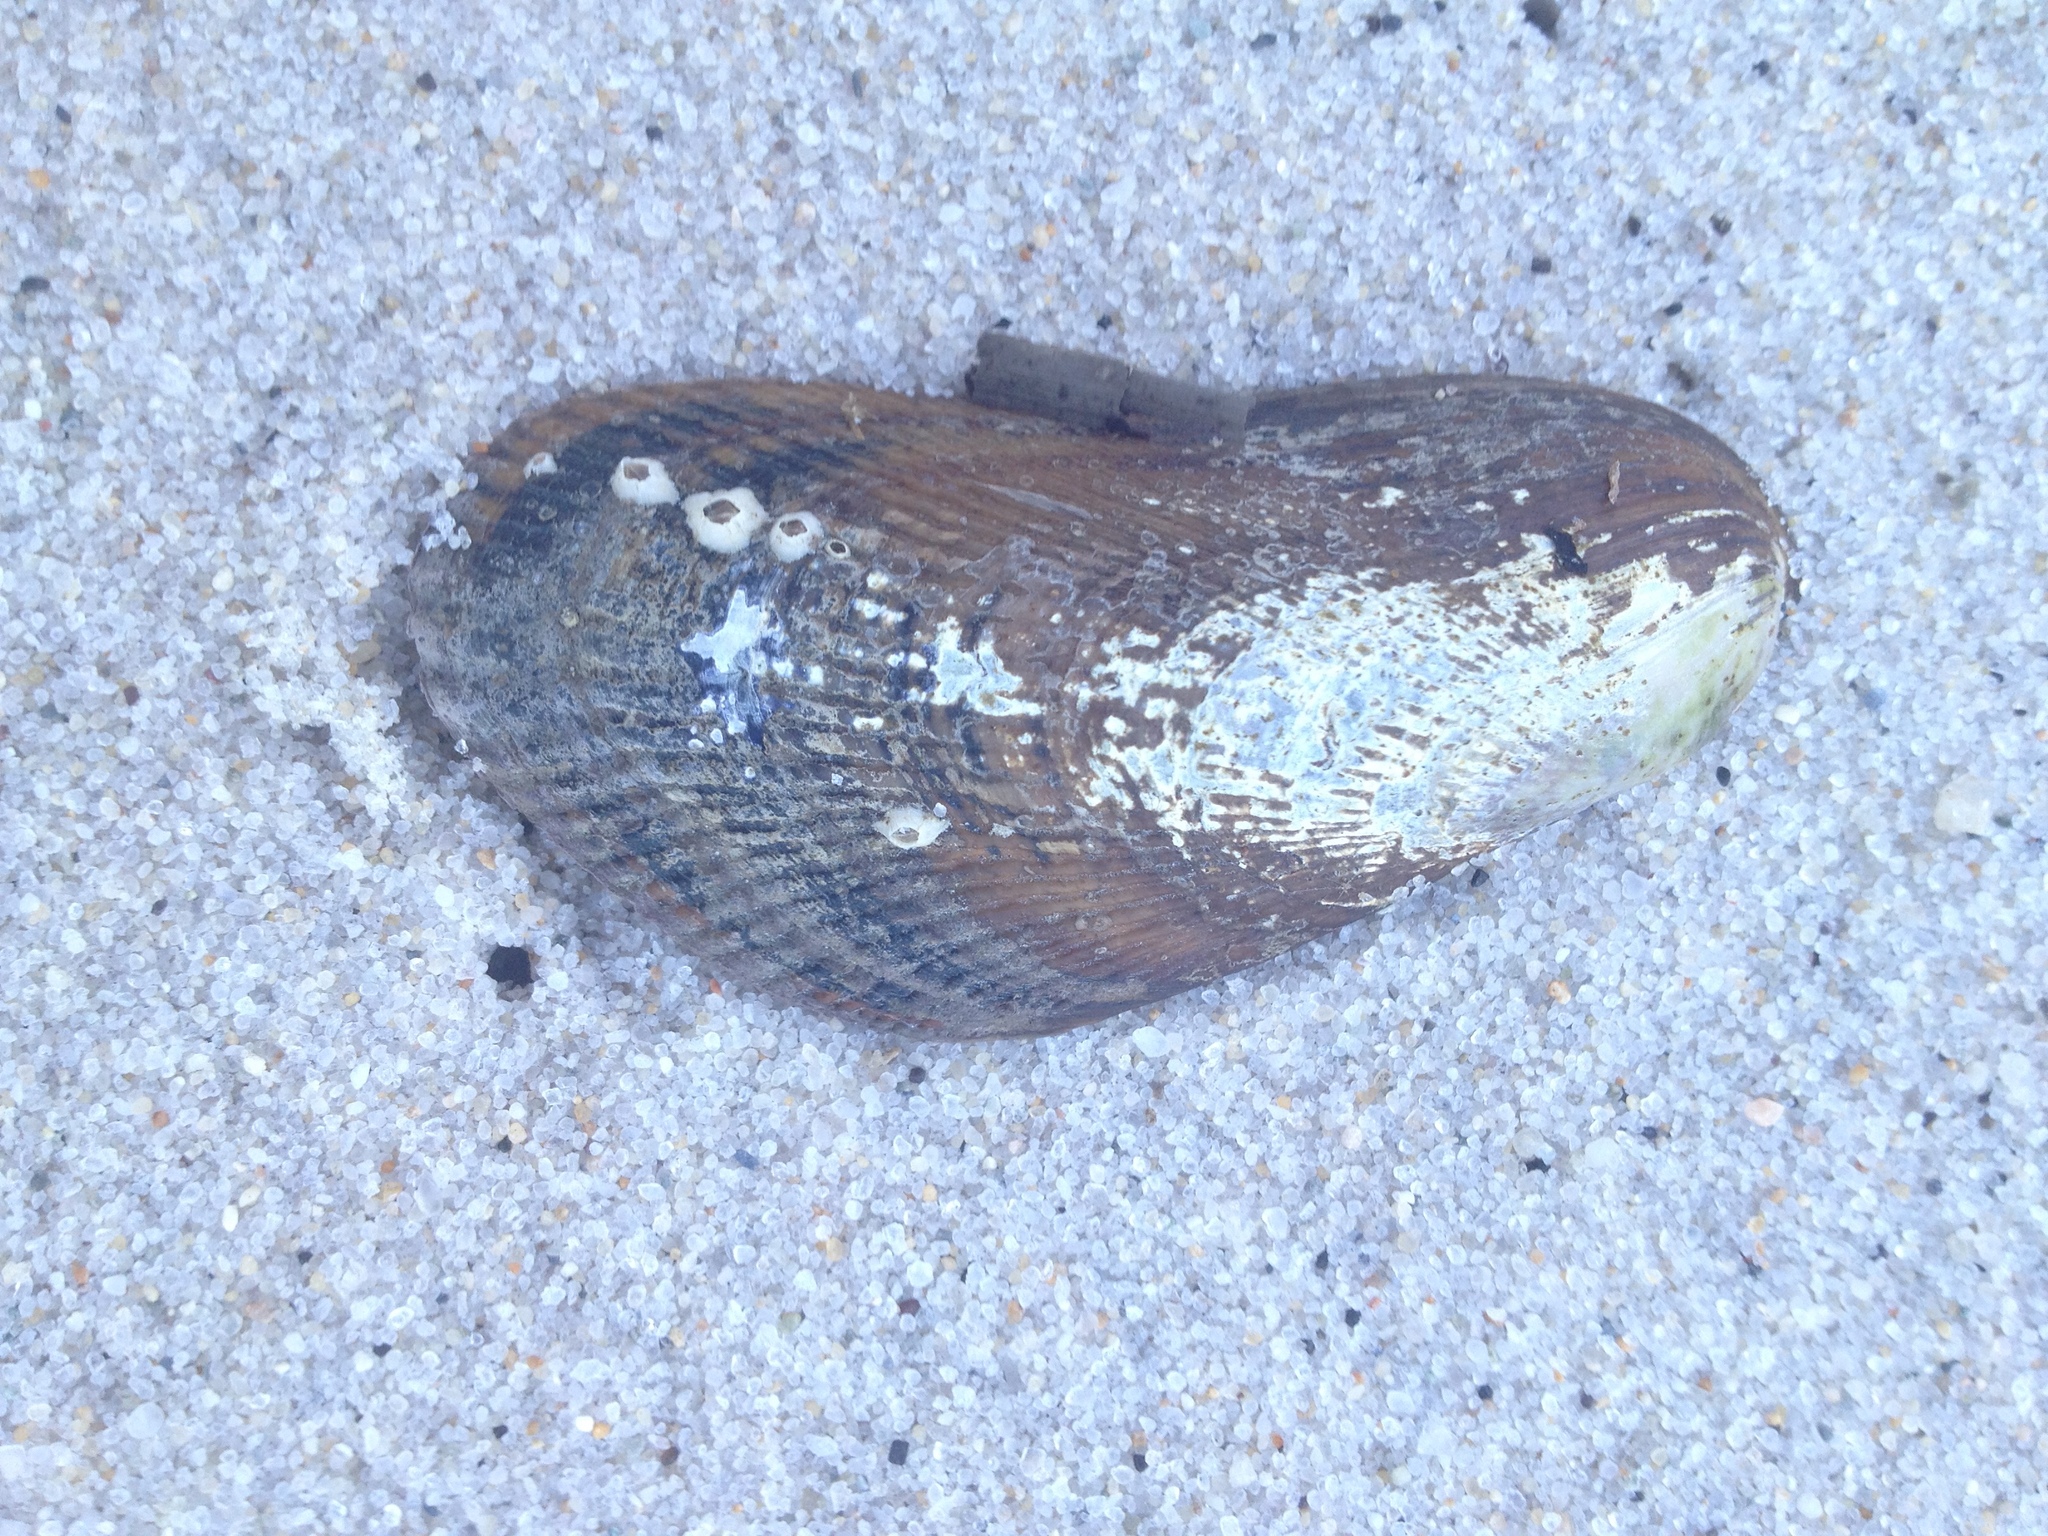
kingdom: Animalia
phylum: Mollusca
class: Bivalvia
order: Mytilida
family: Mytilidae
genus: Geukensia
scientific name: Geukensia demissa
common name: Ribbed mussel
